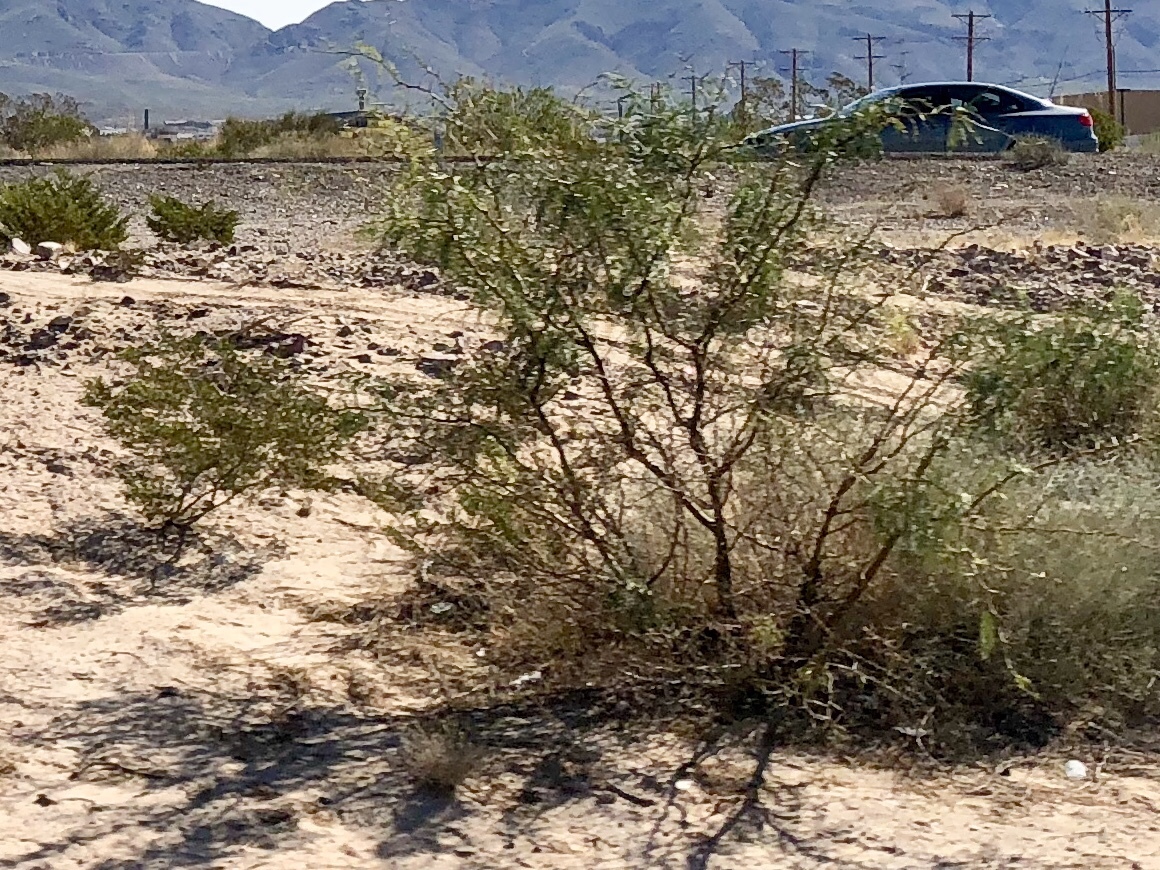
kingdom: Plantae
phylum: Tracheophyta
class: Magnoliopsida
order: Zygophyllales
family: Zygophyllaceae
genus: Larrea
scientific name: Larrea tridentata
